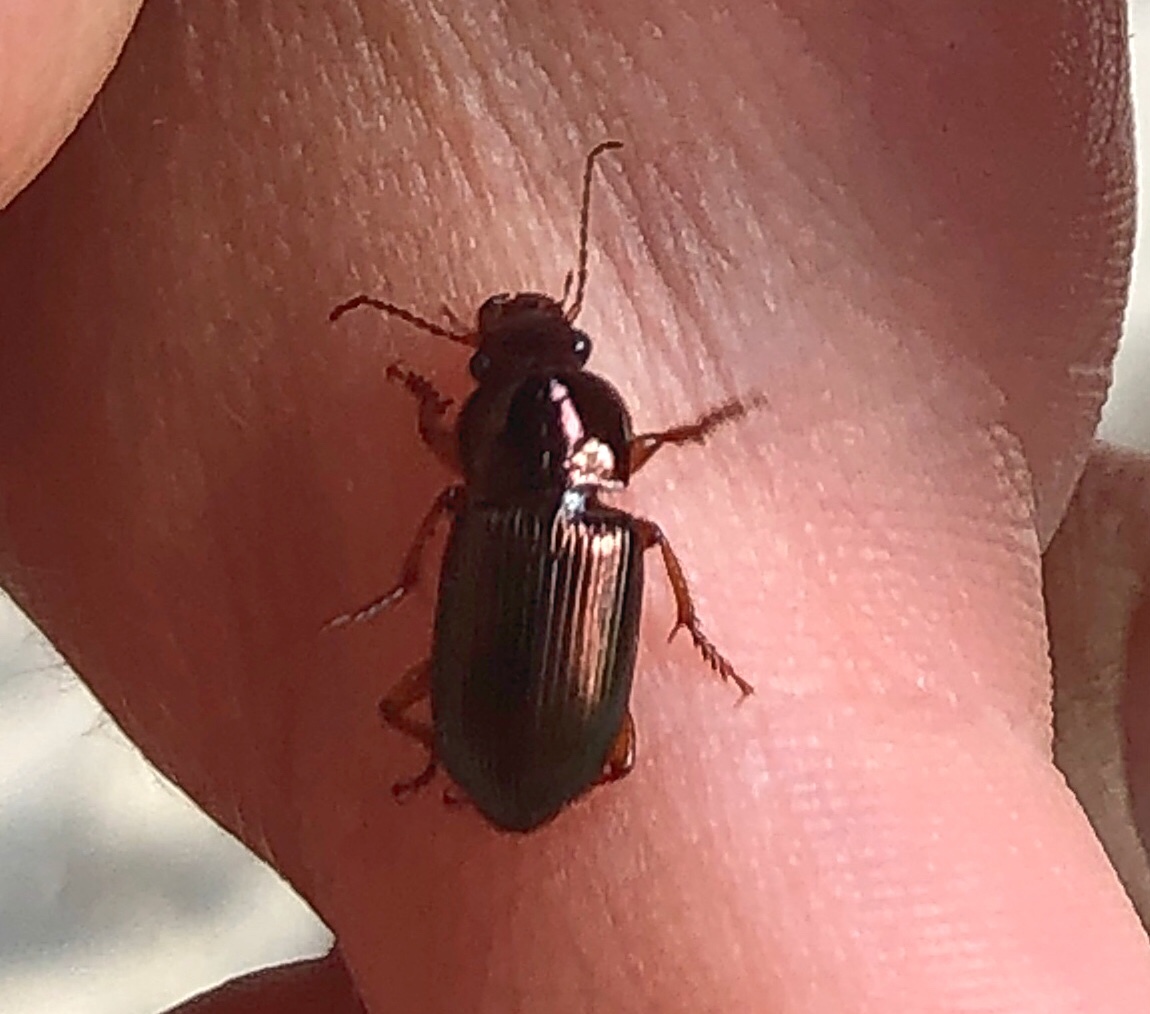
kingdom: Animalia
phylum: Arthropoda
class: Insecta
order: Coleoptera
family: Carabidae
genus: Harpalus
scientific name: Harpalus affinis
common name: Polychrome harp ground beetle
